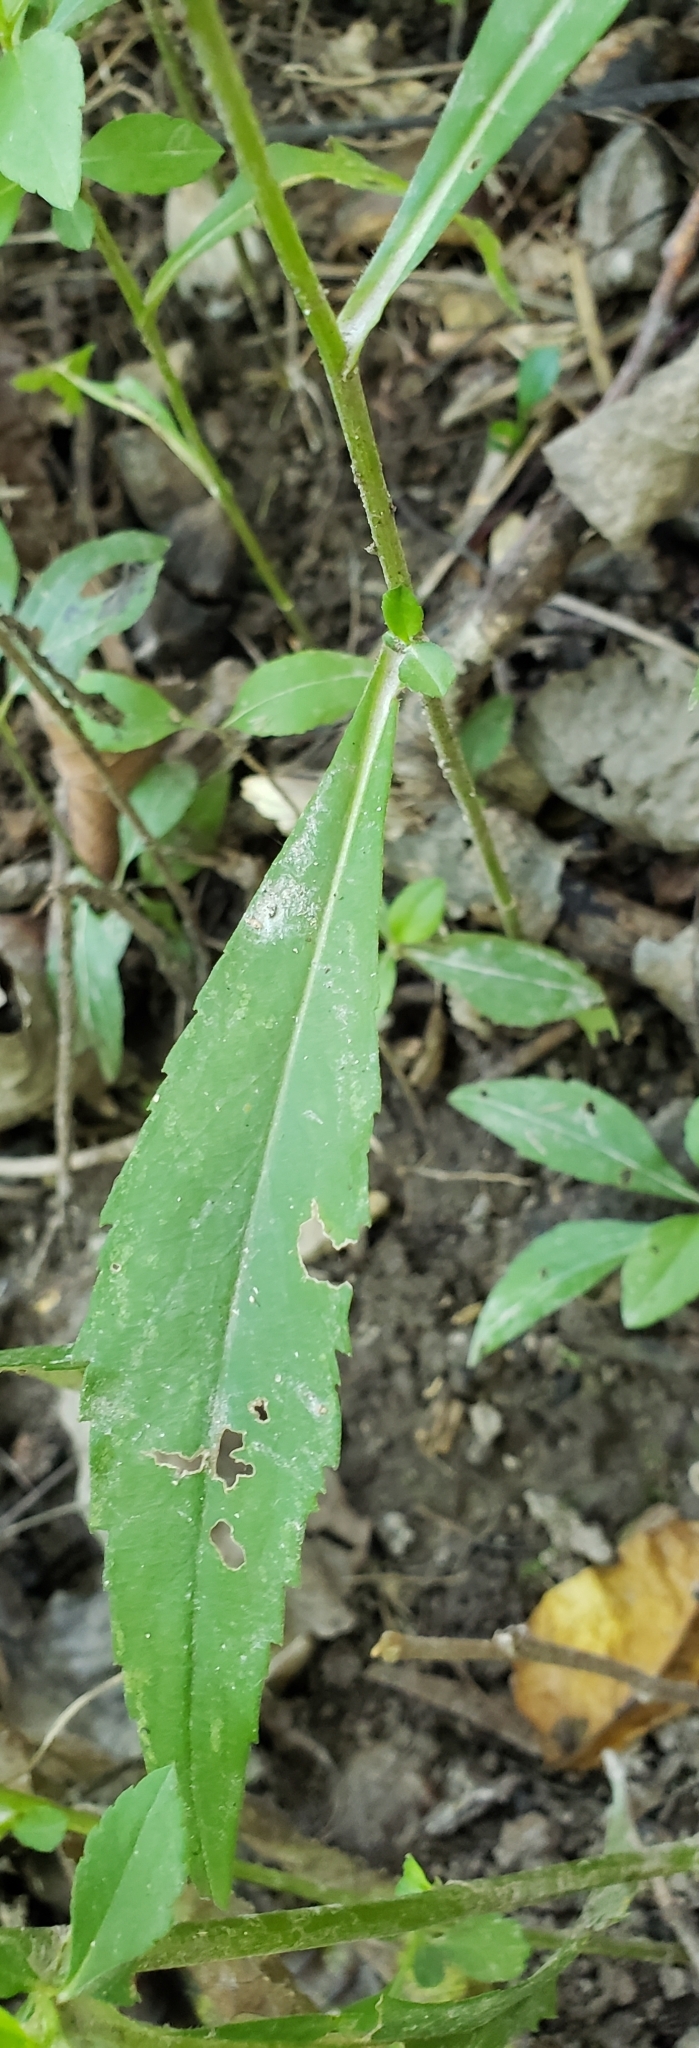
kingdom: Plantae
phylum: Tracheophyta
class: Magnoliopsida
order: Asterales
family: Asteraceae
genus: Symphyotrichum
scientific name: Symphyotrichum ontarionis
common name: Bottomland aster
